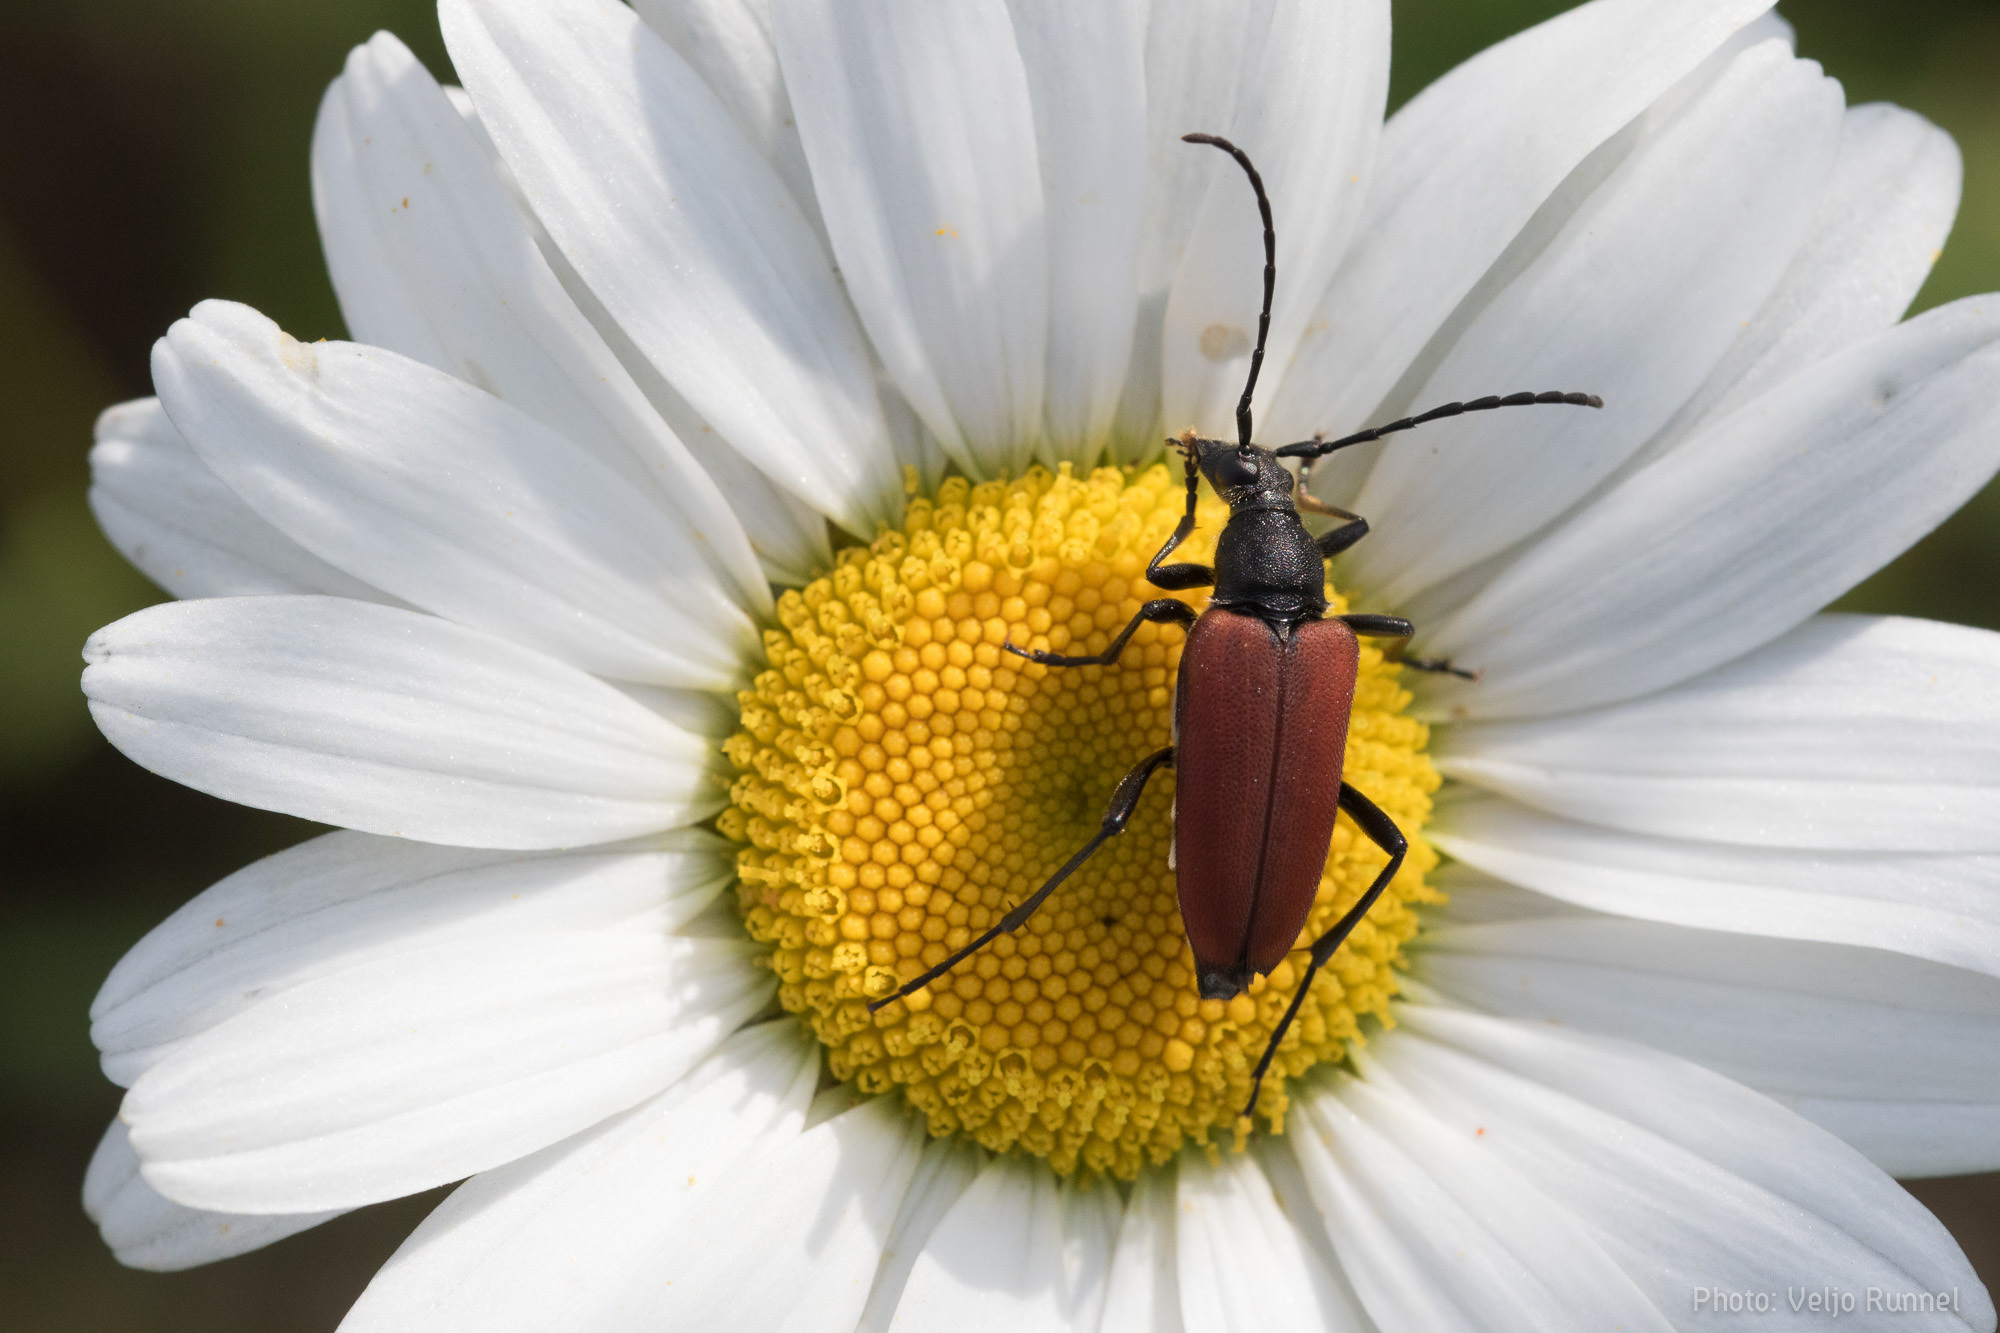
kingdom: Animalia
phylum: Arthropoda
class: Insecta
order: Coleoptera
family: Cerambycidae
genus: Anastrangalia
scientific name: Anastrangalia sanguinolenta
